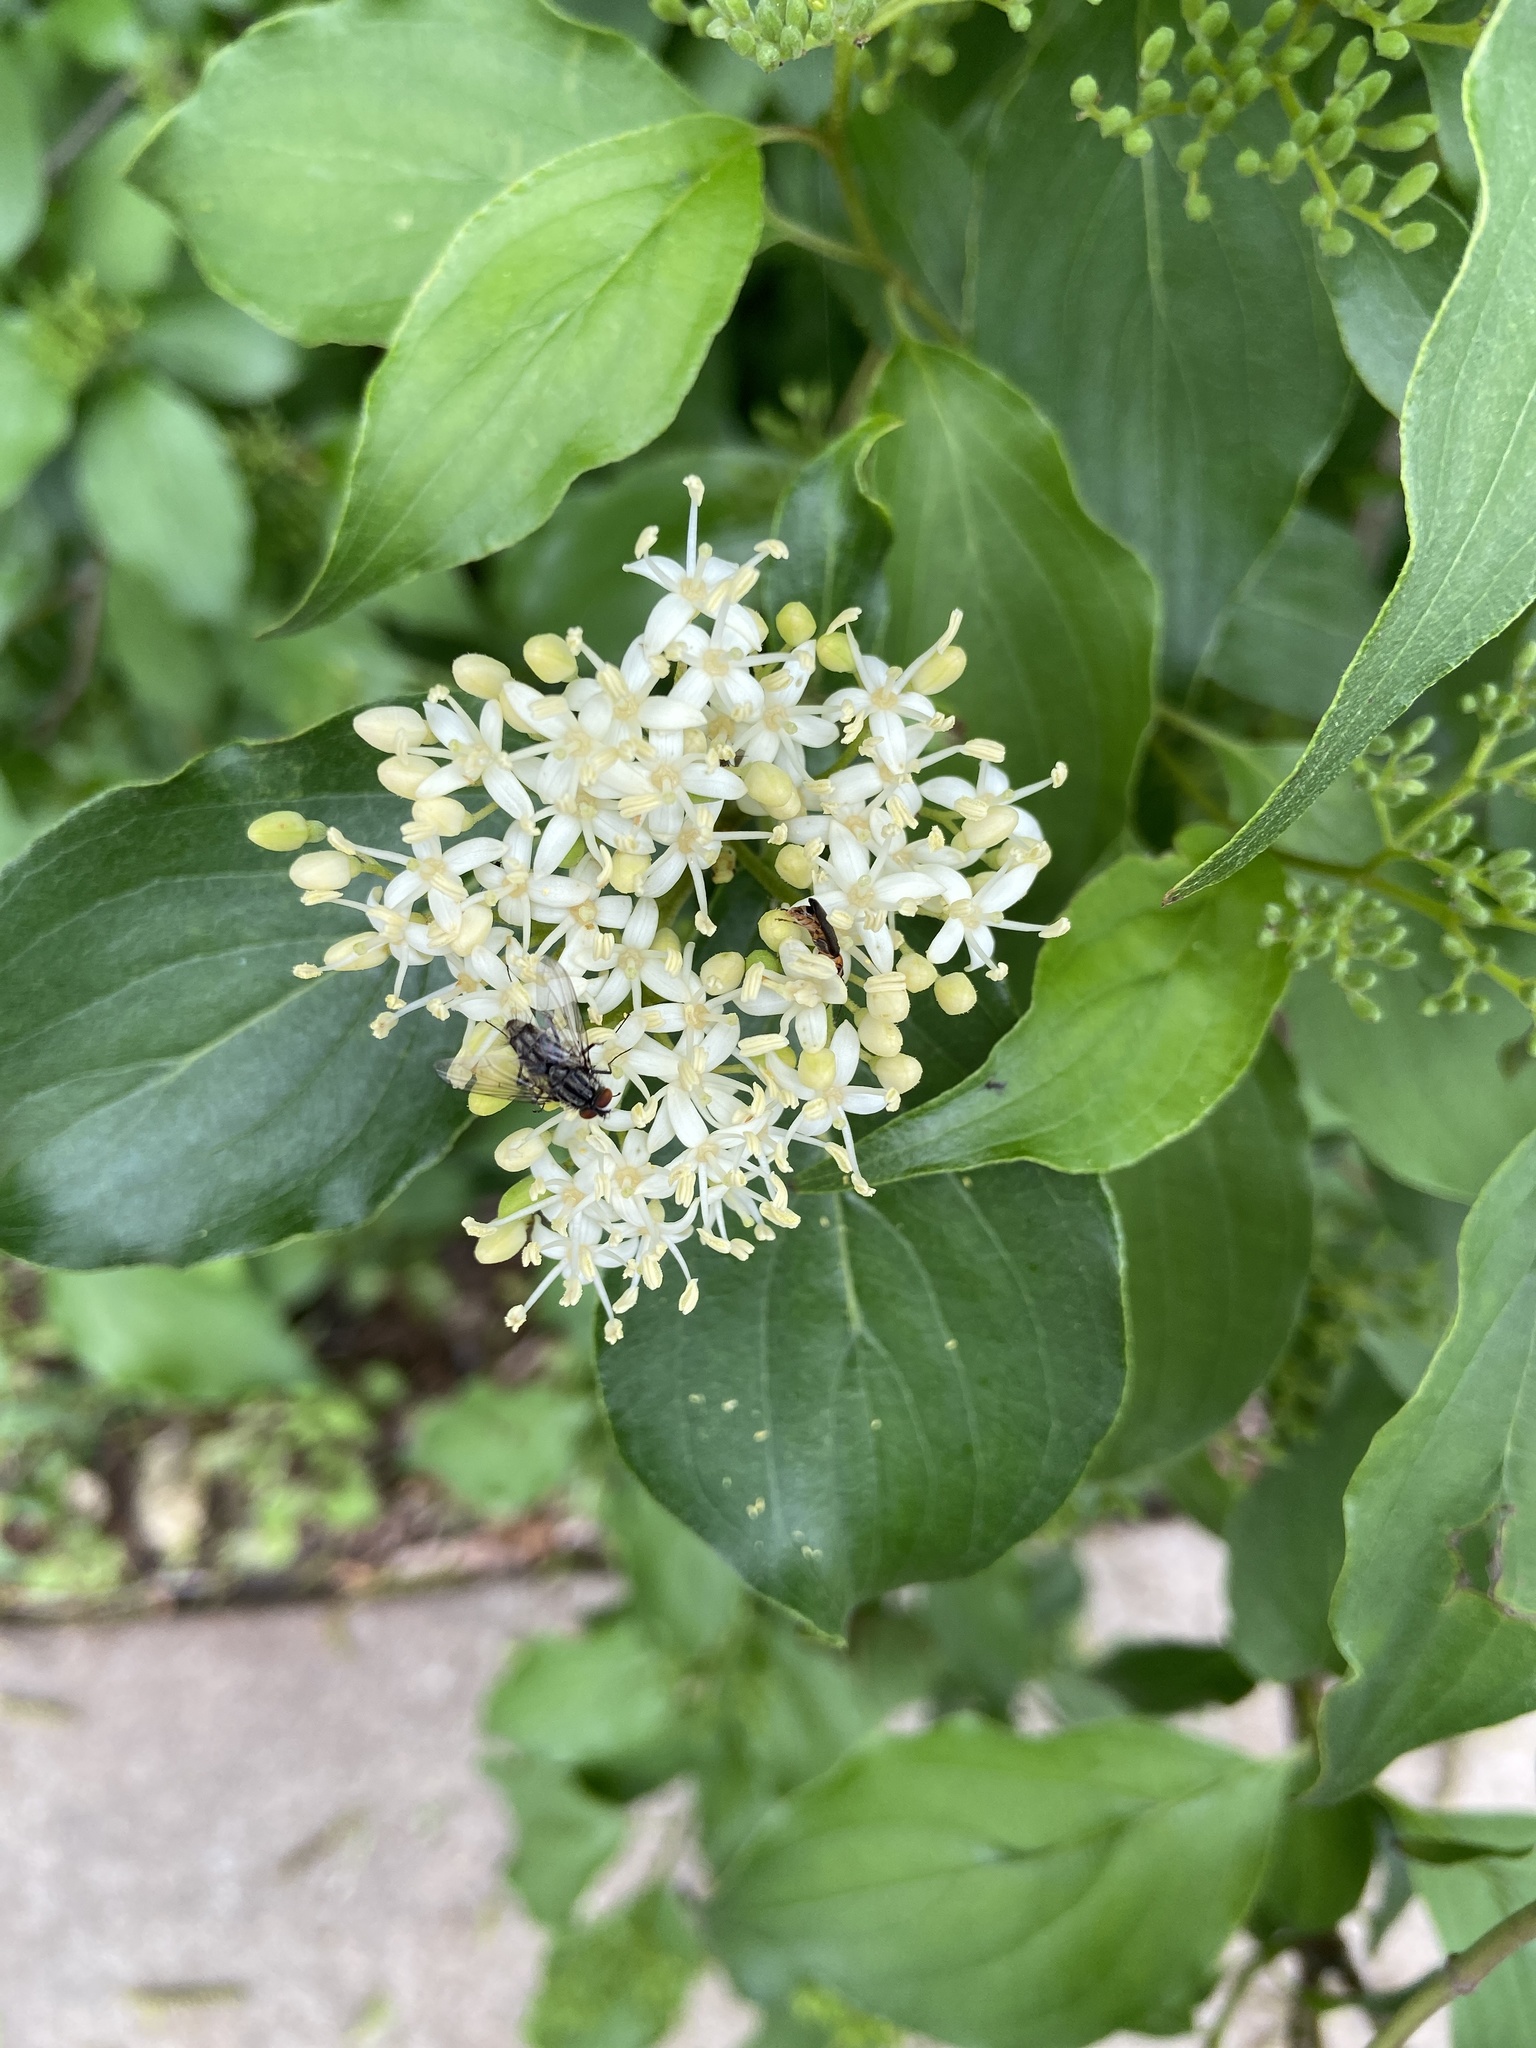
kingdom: Plantae
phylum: Tracheophyta
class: Magnoliopsida
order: Cornales
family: Cornaceae
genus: Cornus
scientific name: Cornus drummondii
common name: Rough-leaf dogwood
